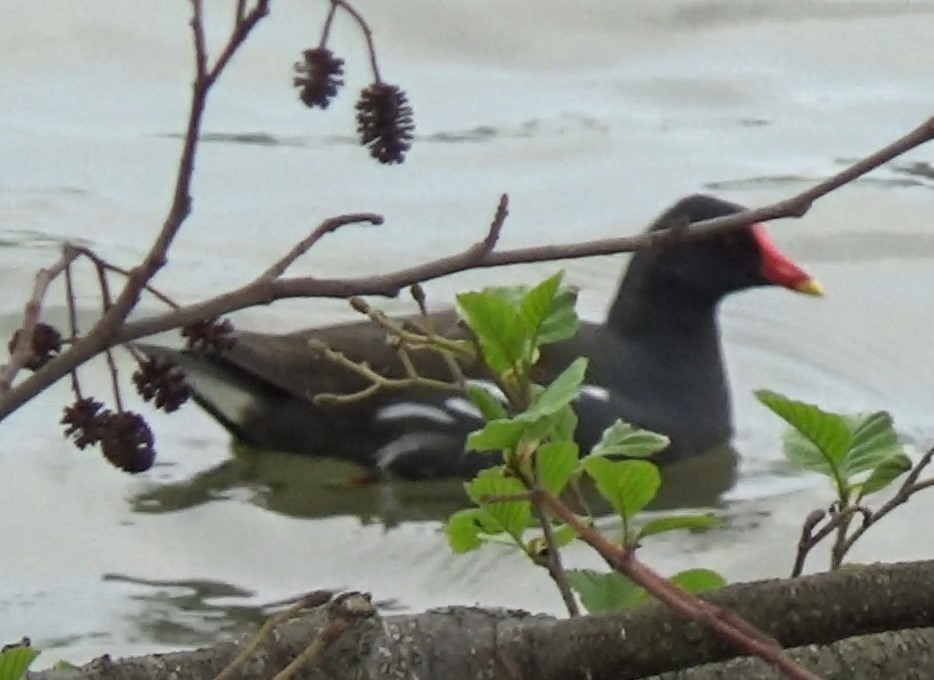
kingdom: Animalia
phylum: Chordata
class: Aves
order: Gruiformes
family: Rallidae
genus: Gallinula
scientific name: Gallinula chloropus
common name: Common moorhen
